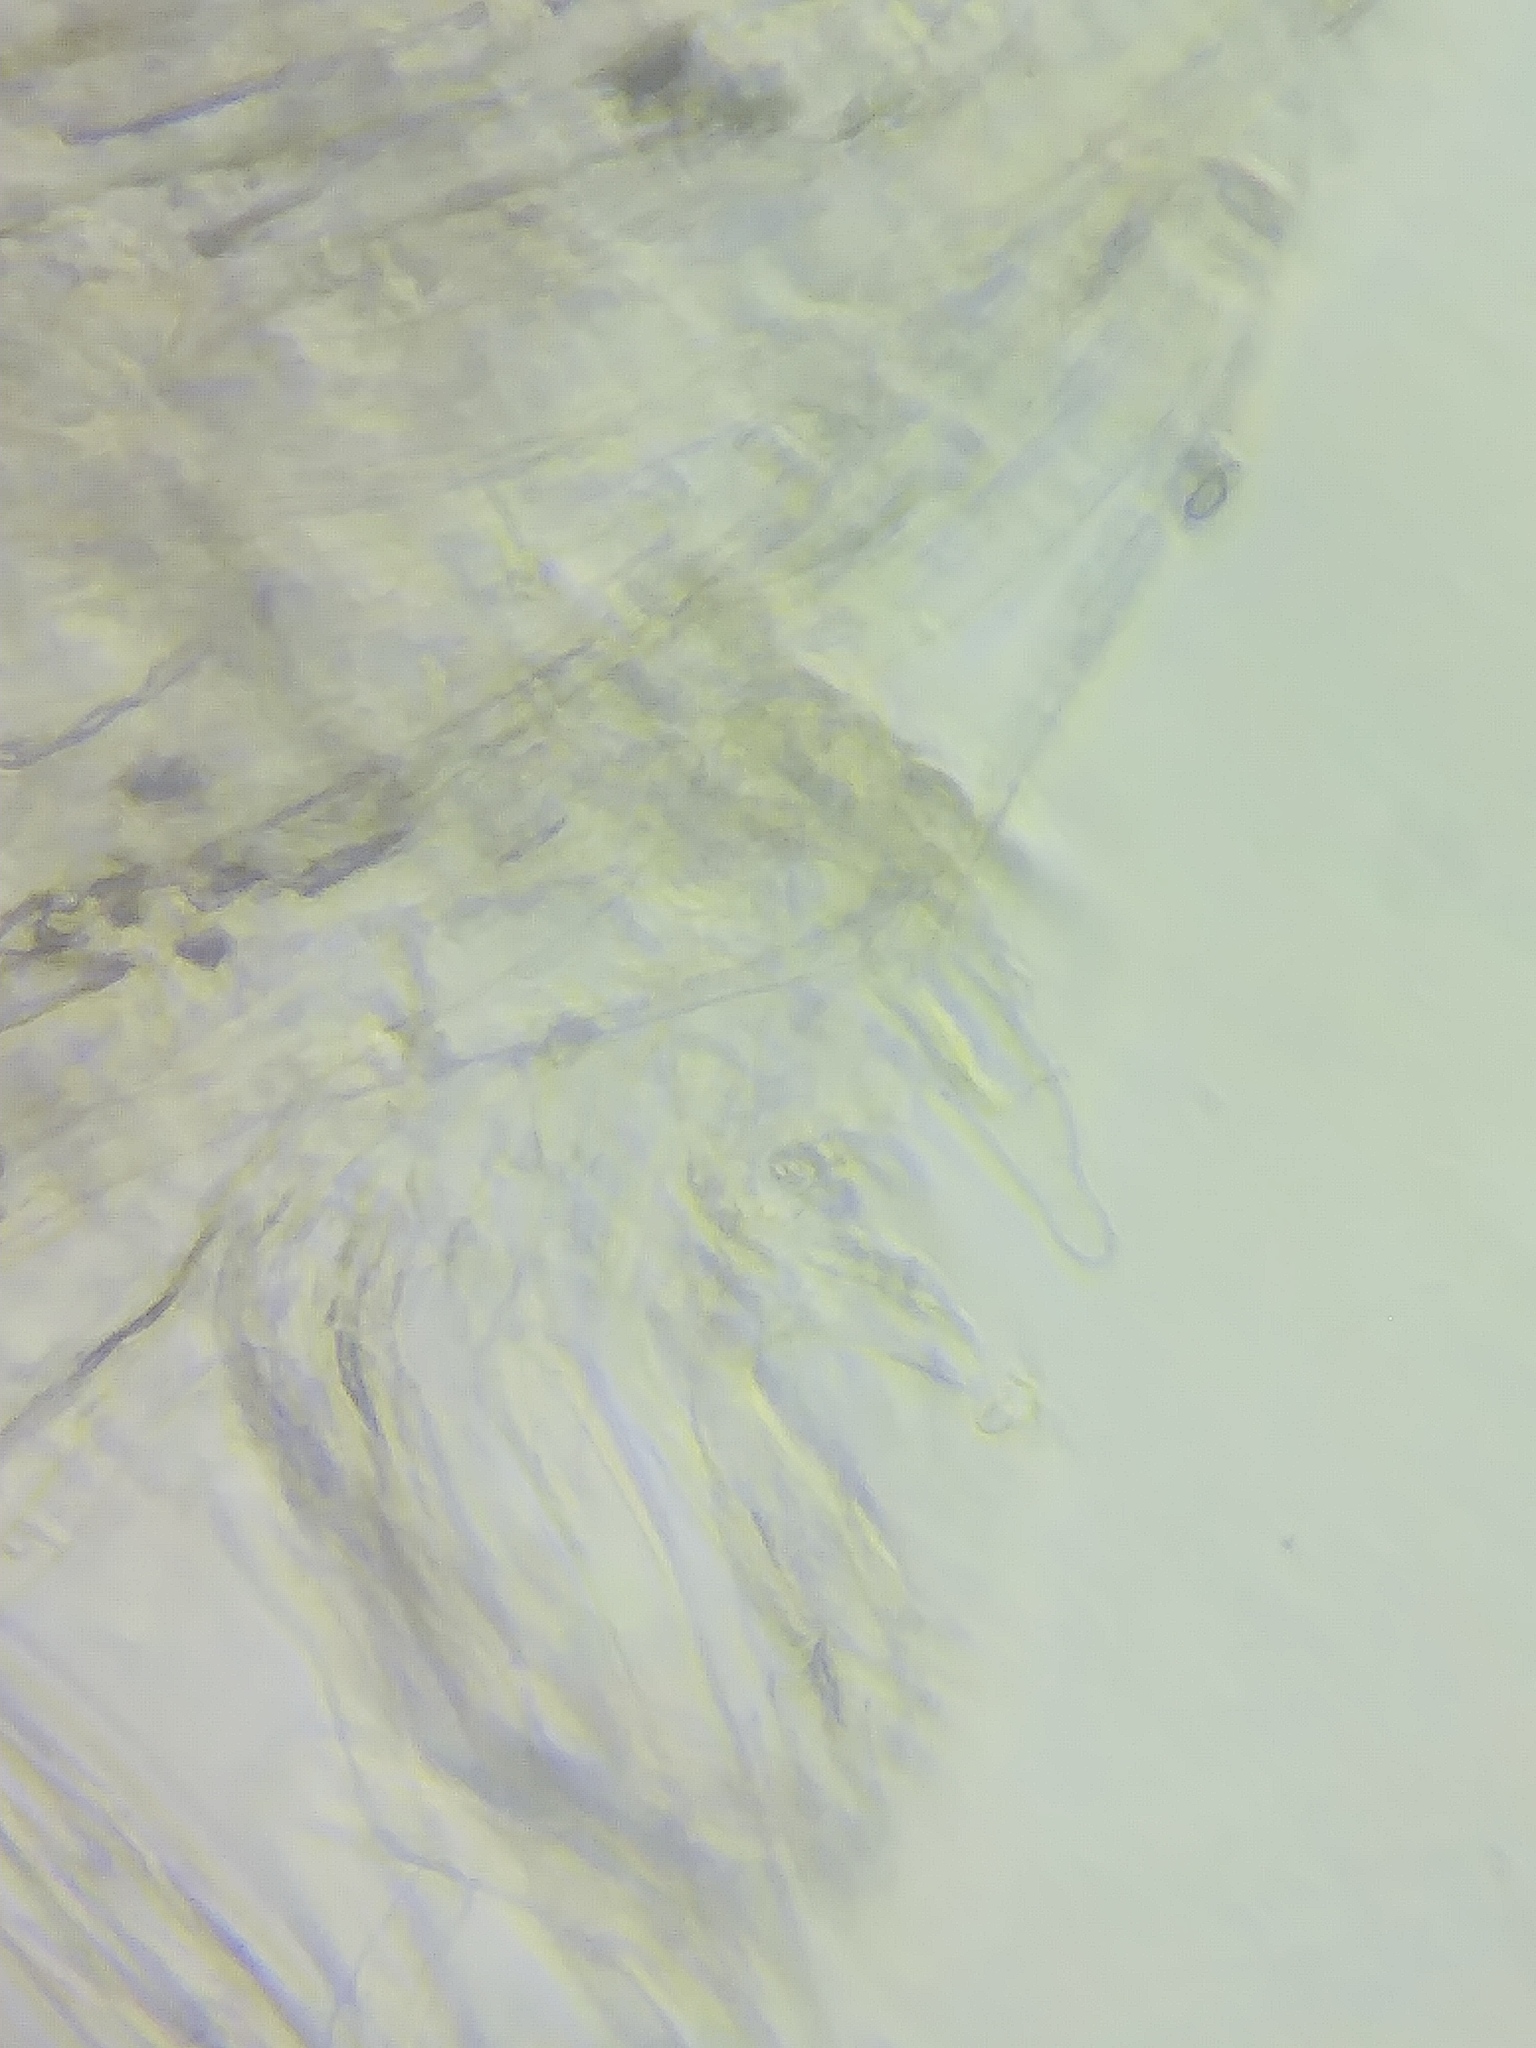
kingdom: Fungi
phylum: Basidiomycota
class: Agaricomycetes
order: Agaricales
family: Inocybaceae
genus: Pseudosperma
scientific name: Pseudosperma friabile
